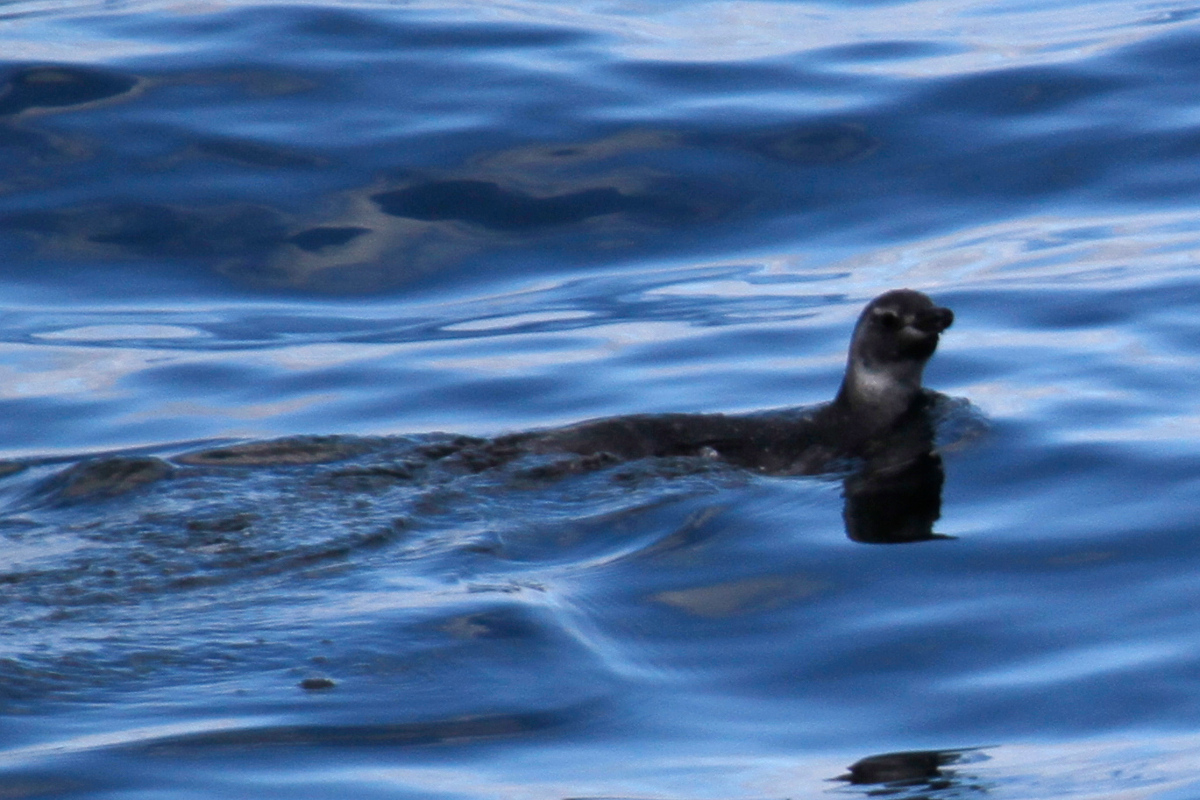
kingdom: Animalia
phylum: Chordata
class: Aves
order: Sphenisciformes
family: Spheniscidae
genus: Spheniscus
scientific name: Spheniscus magellanicus
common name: Magellanic penguin
